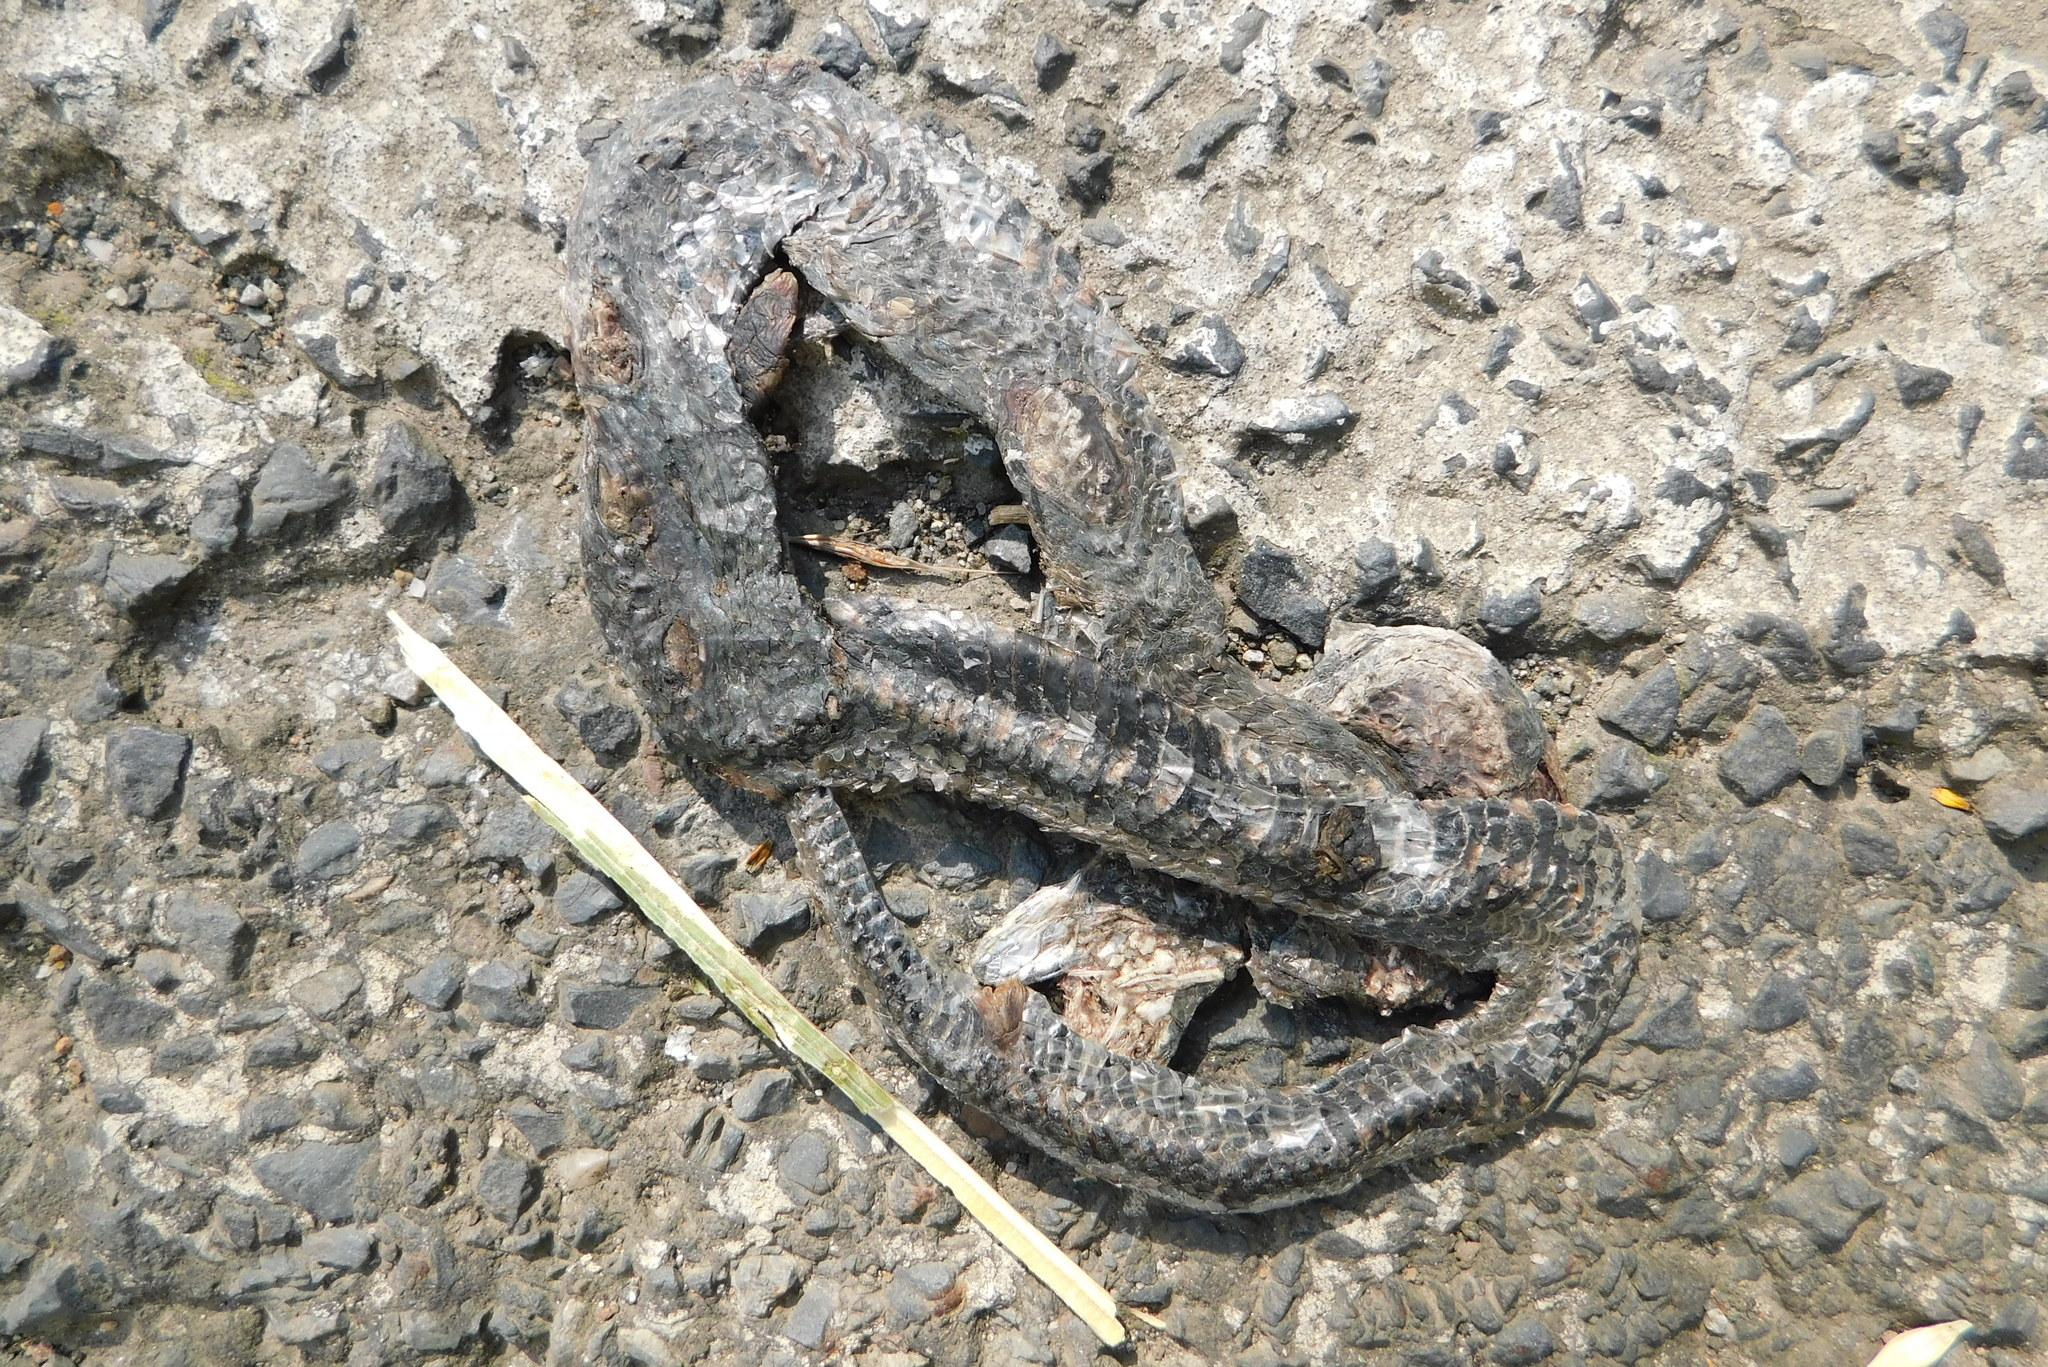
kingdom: Animalia
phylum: Chordata
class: Squamata
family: Colubridae
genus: Natrix
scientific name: Natrix tessellata
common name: Dice snake
